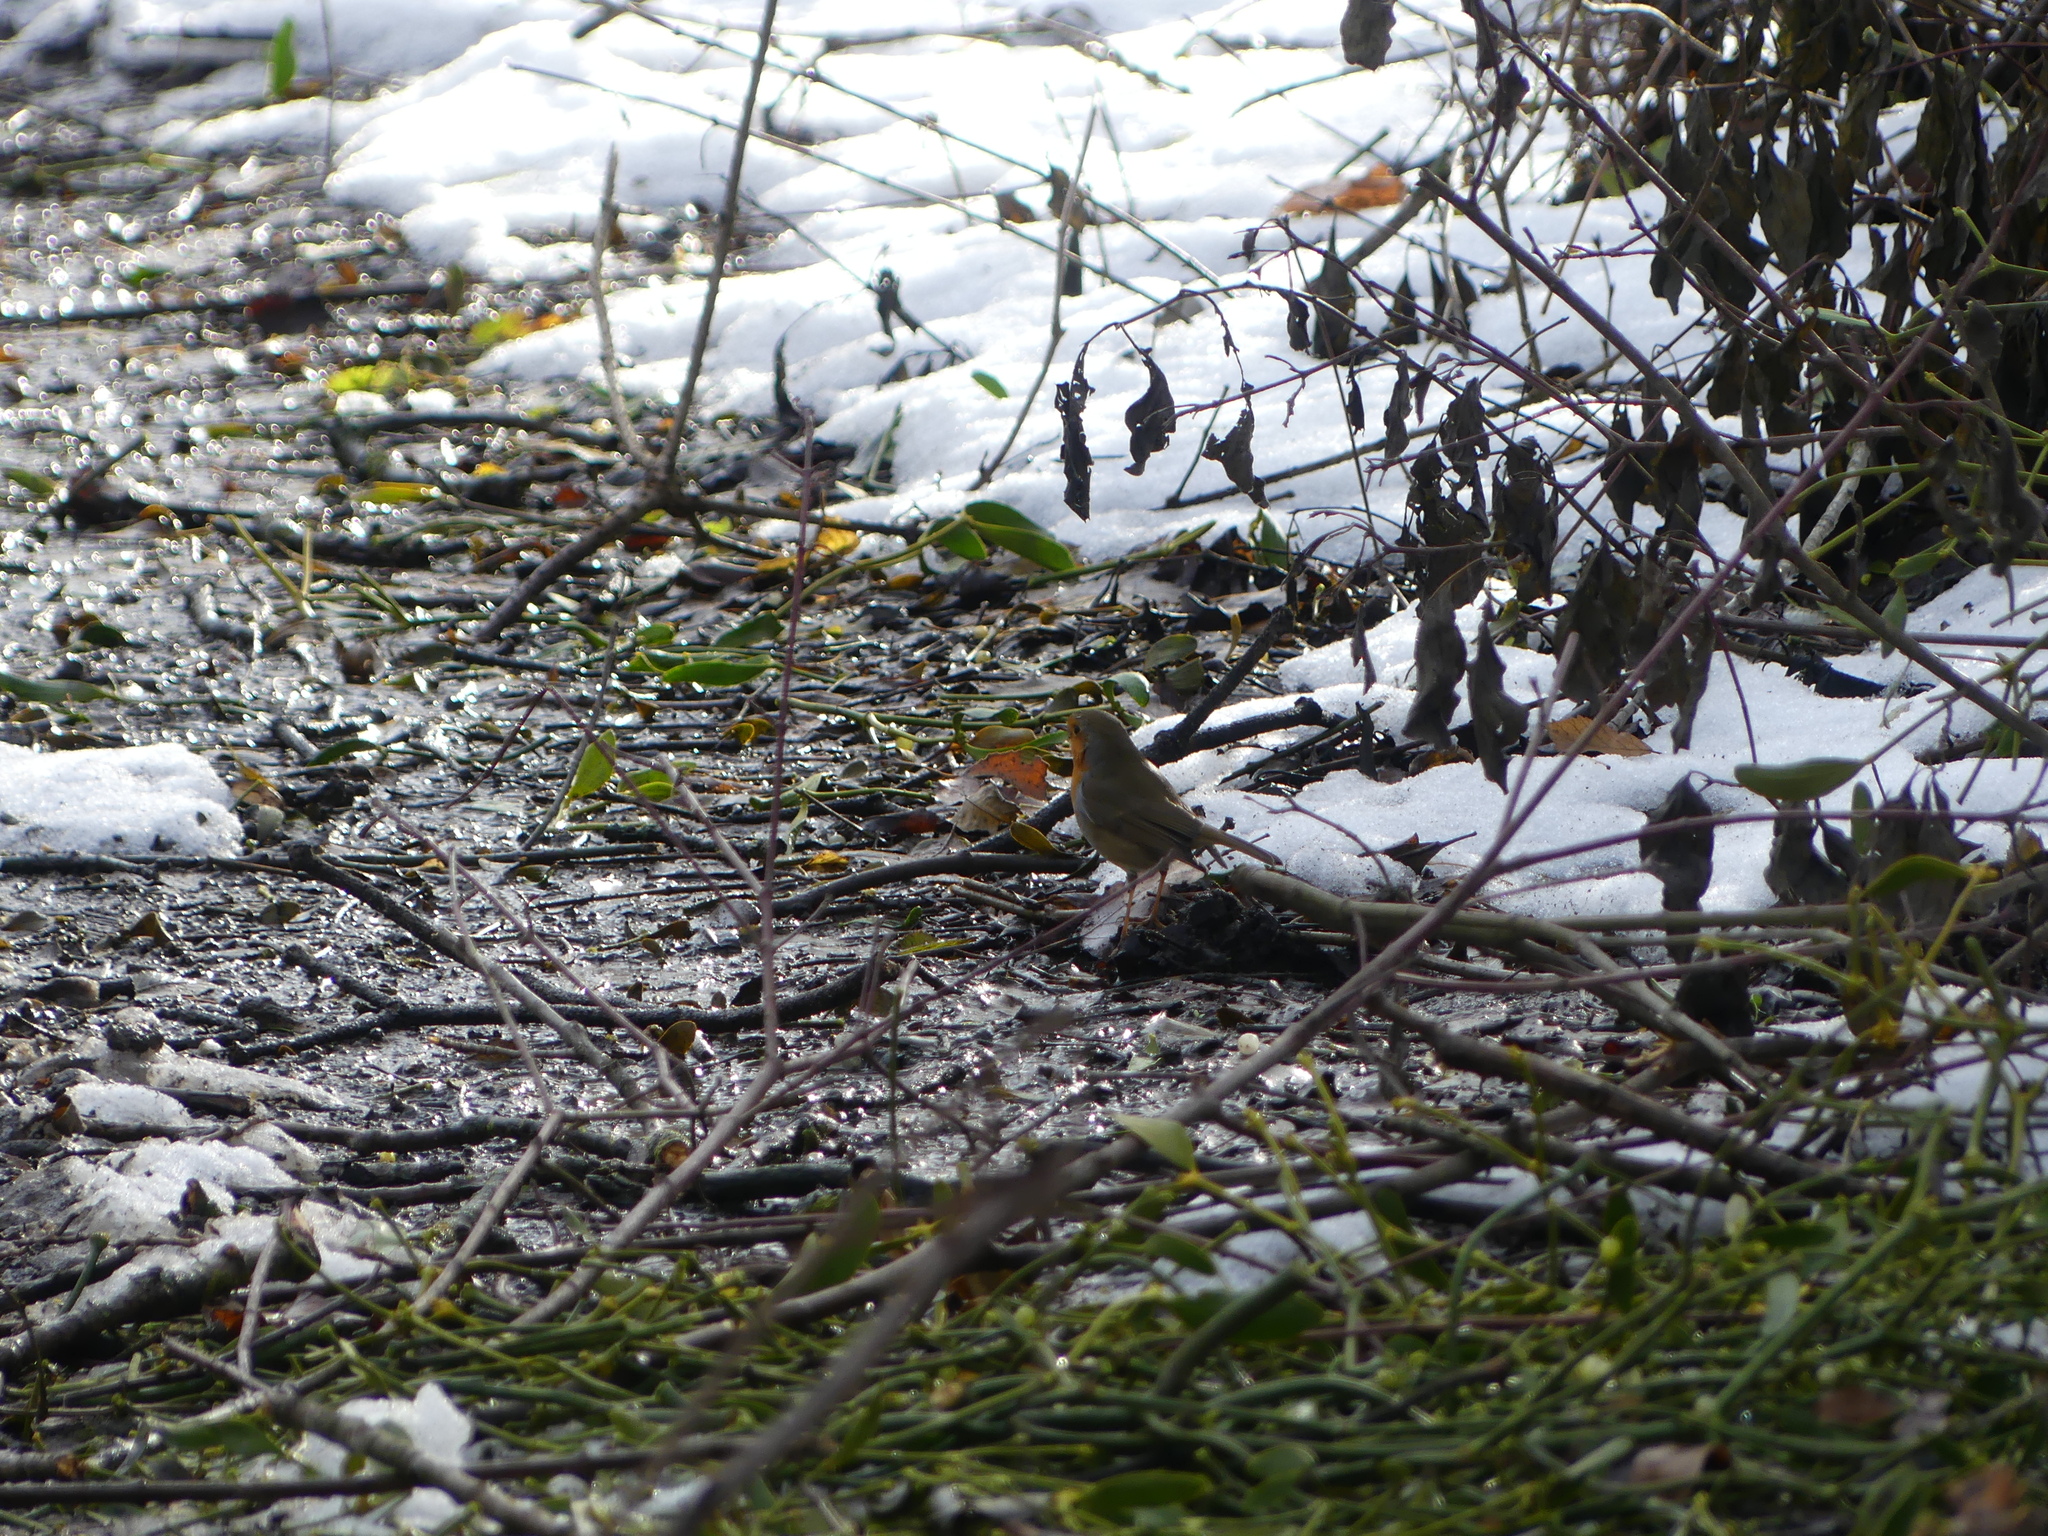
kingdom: Animalia
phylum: Chordata
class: Aves
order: Passeriformes
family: Muscicapidae
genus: Erithacus
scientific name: Erithacus rubecula
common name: European robin
